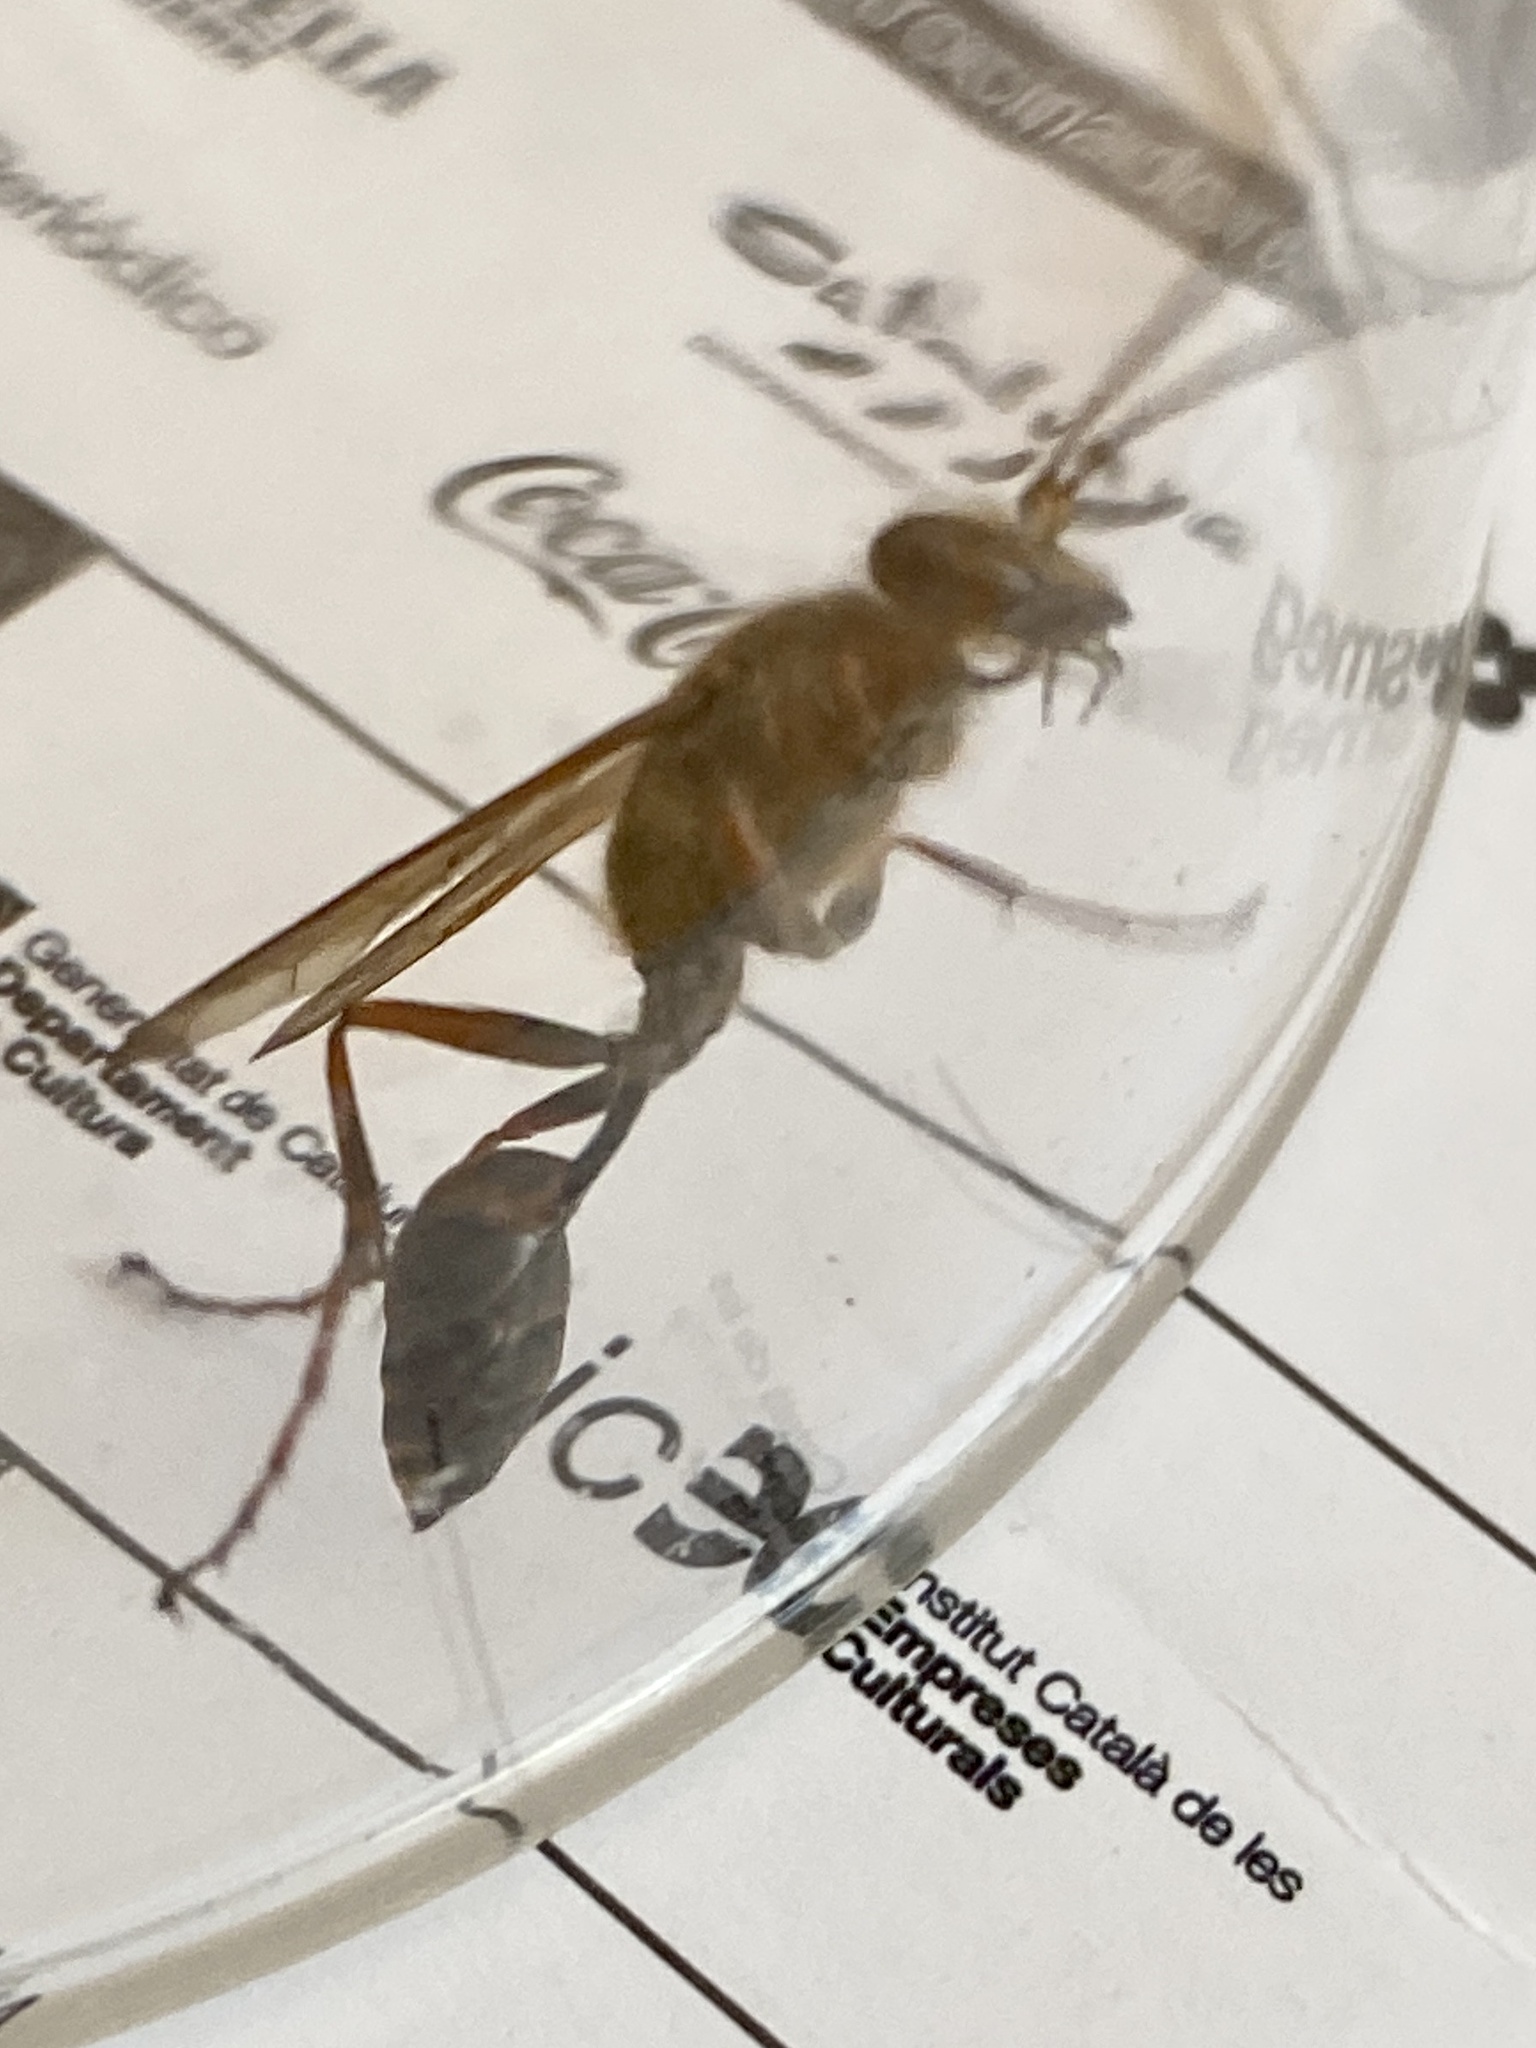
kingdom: Animalia
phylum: Arthropoda
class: Insecta
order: Hymenoptera
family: Sphecidae
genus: Sceliphron
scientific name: Sceliphron curvatum
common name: Pèlopèe
